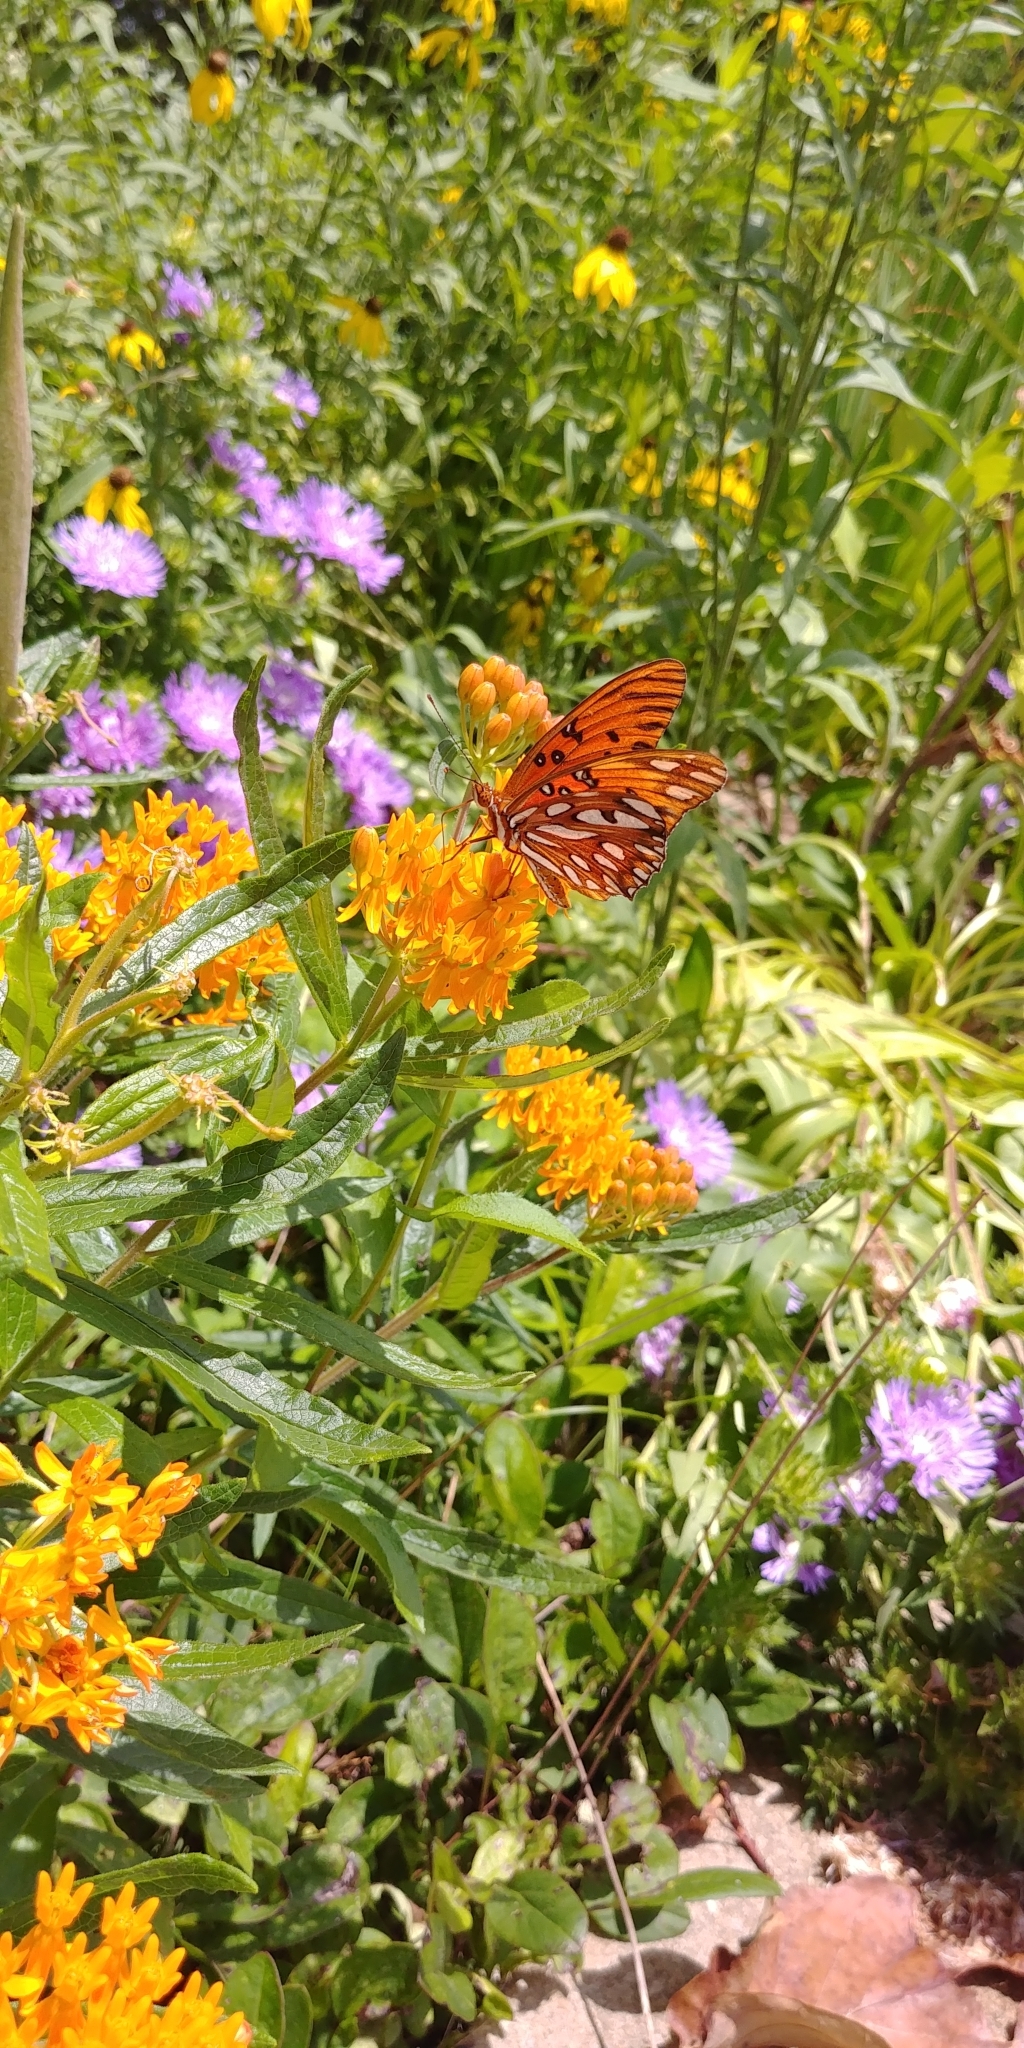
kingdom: Animalia
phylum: Arthropoda
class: Insecta
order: Lepidoptera
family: Nymphalidae
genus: Dione
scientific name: Dione vanillae
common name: Gulf fritillary
